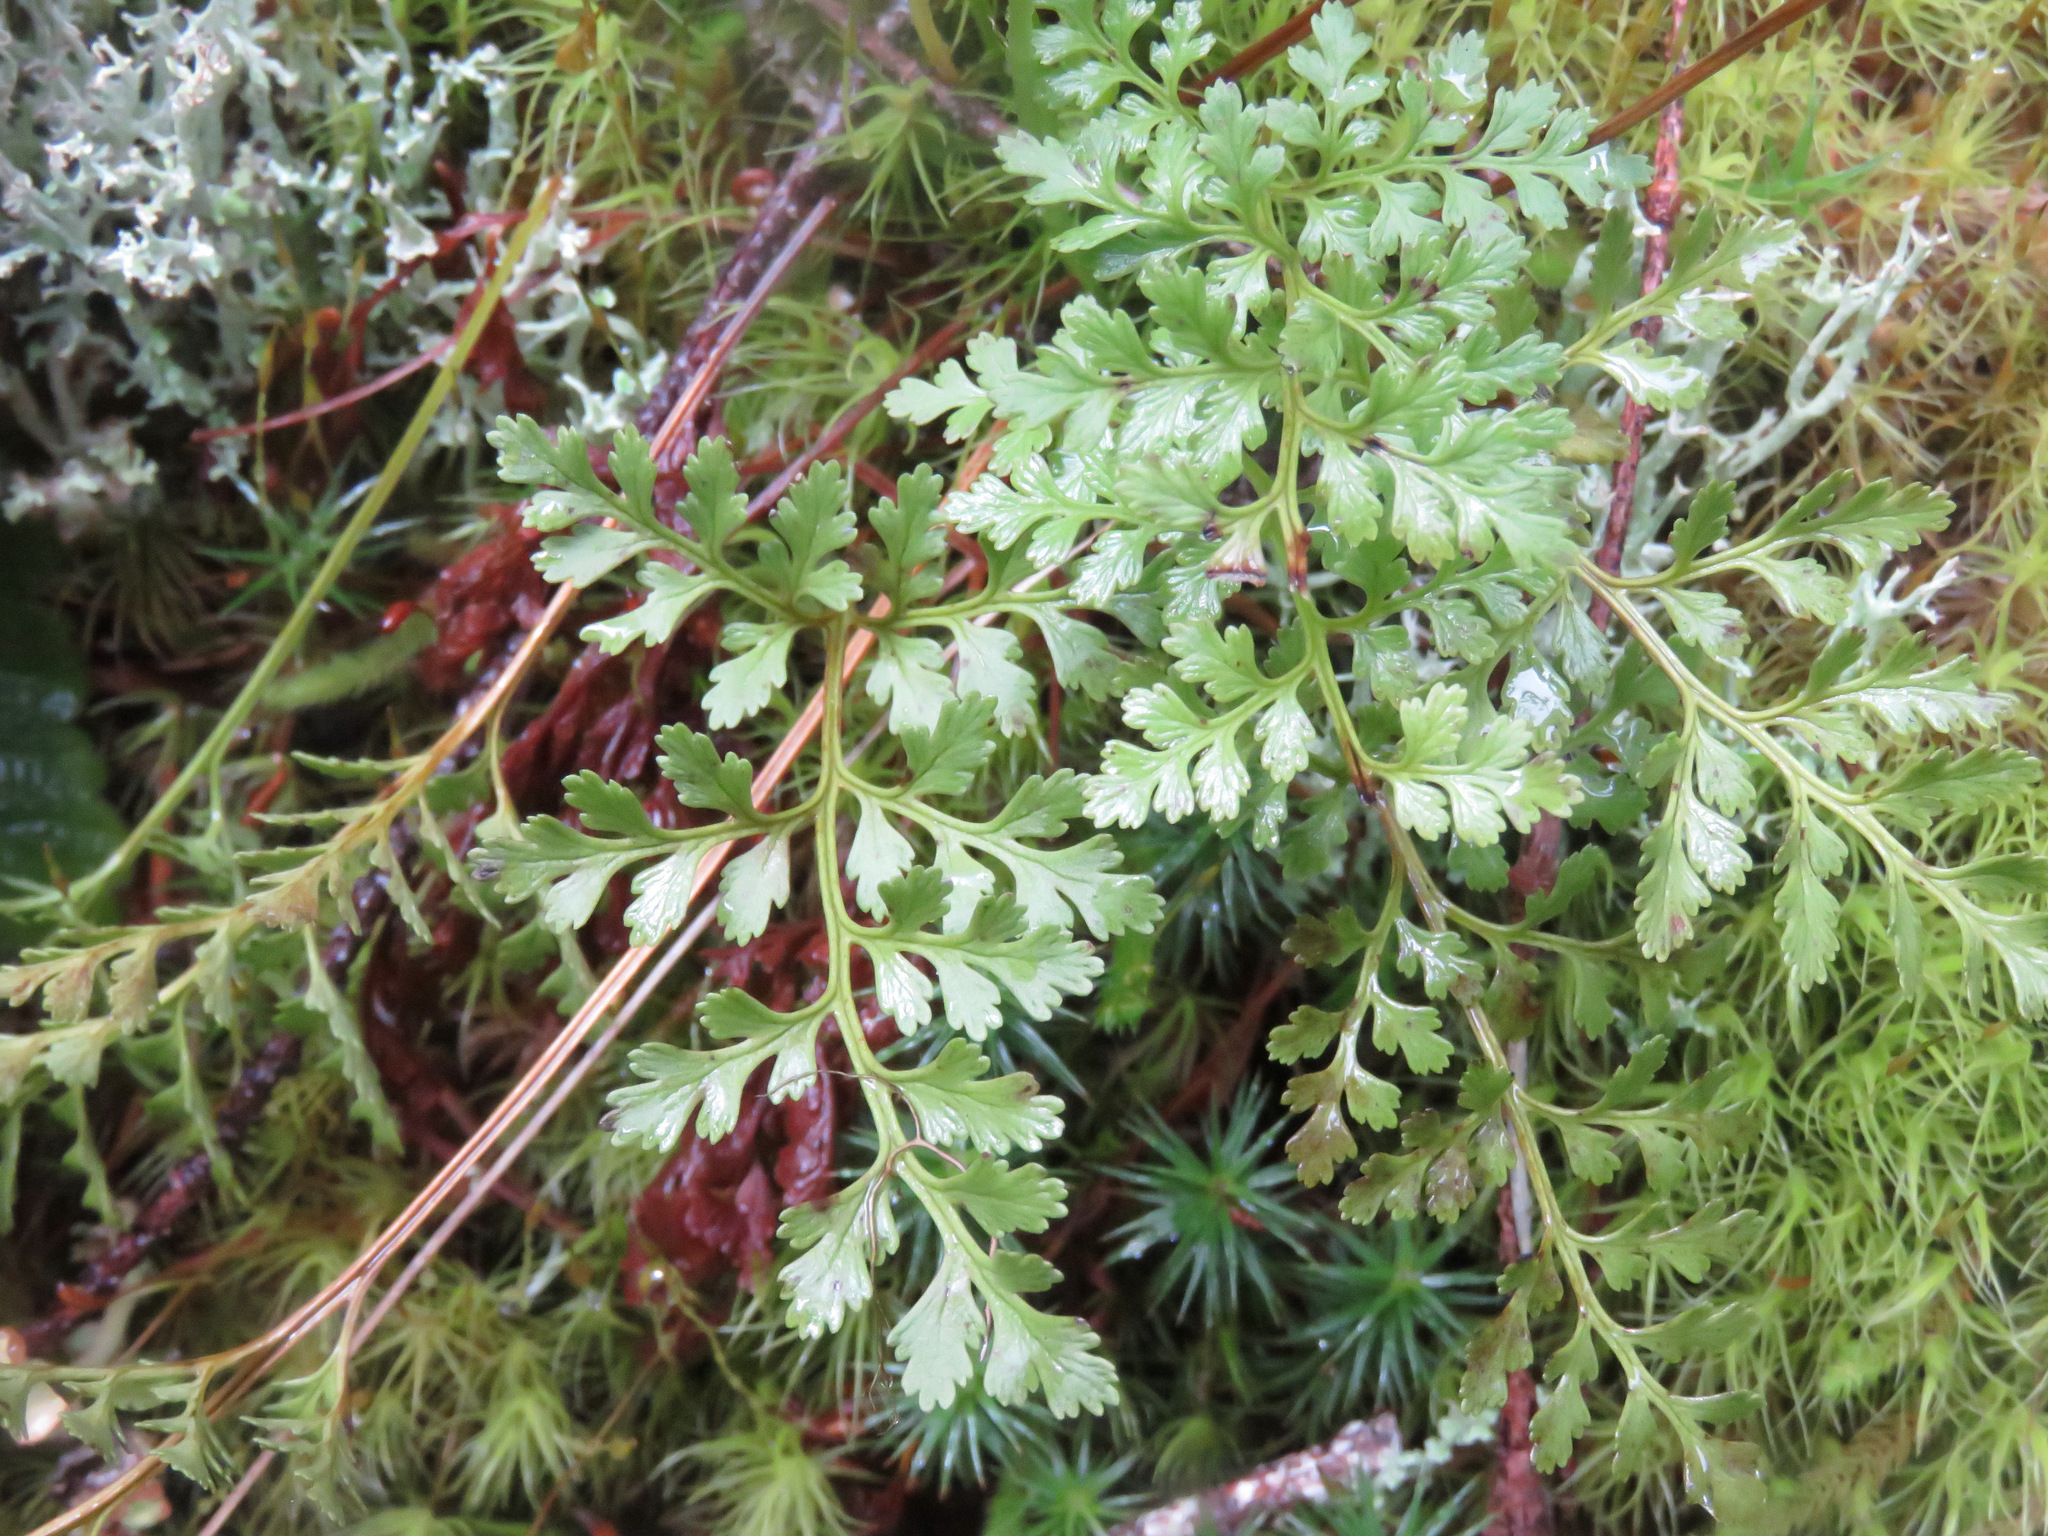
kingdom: Plantae
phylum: Tracheophyta
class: Polypodiopsida
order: Polypodiales
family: Pteridaceae
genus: Cryptogramma
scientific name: Cryptogramma acrostichoides
